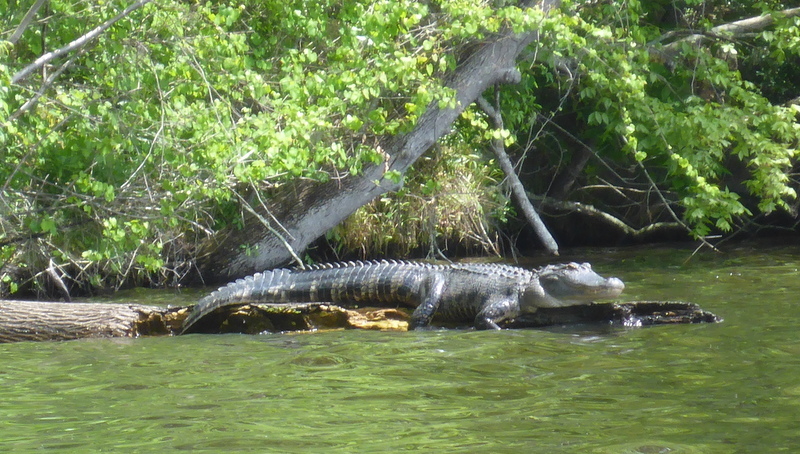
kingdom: Animalia
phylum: Chordata
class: Crocodylia
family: Alligatoridae
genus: Alligator
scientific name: Alligator mississippiensis
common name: American alligator
